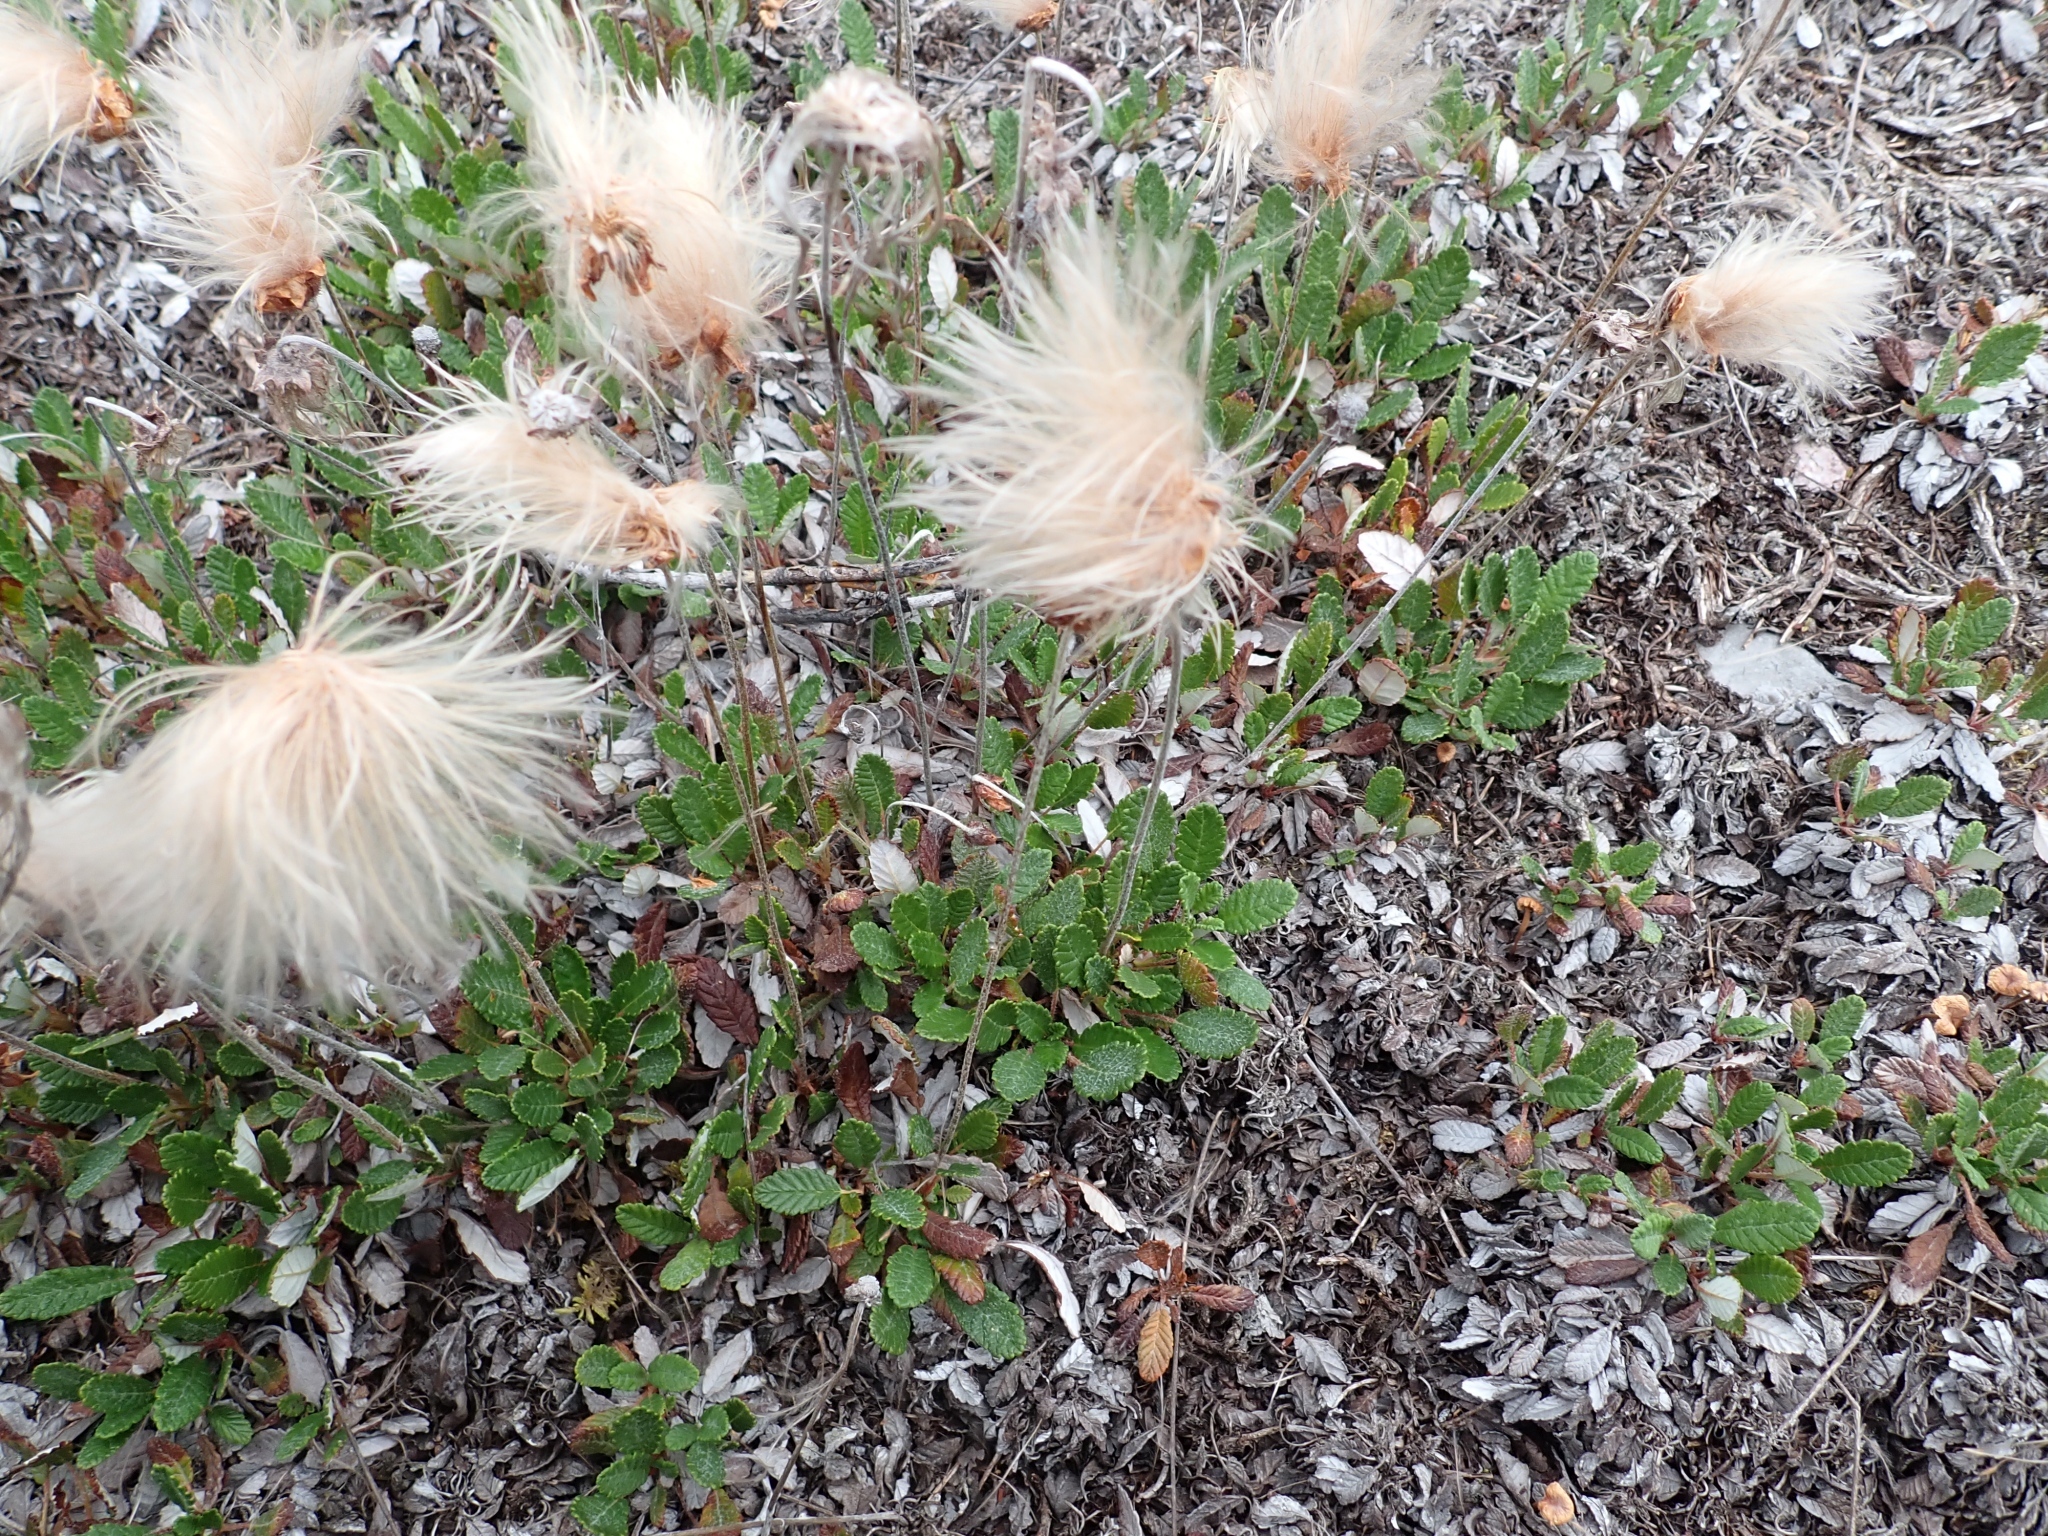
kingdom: Plantae
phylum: Tracheophyta
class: Magnoliopsida
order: Rosales
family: Rosaceae
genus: Dryas
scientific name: Dryas drummondii
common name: Drummond's dryad
